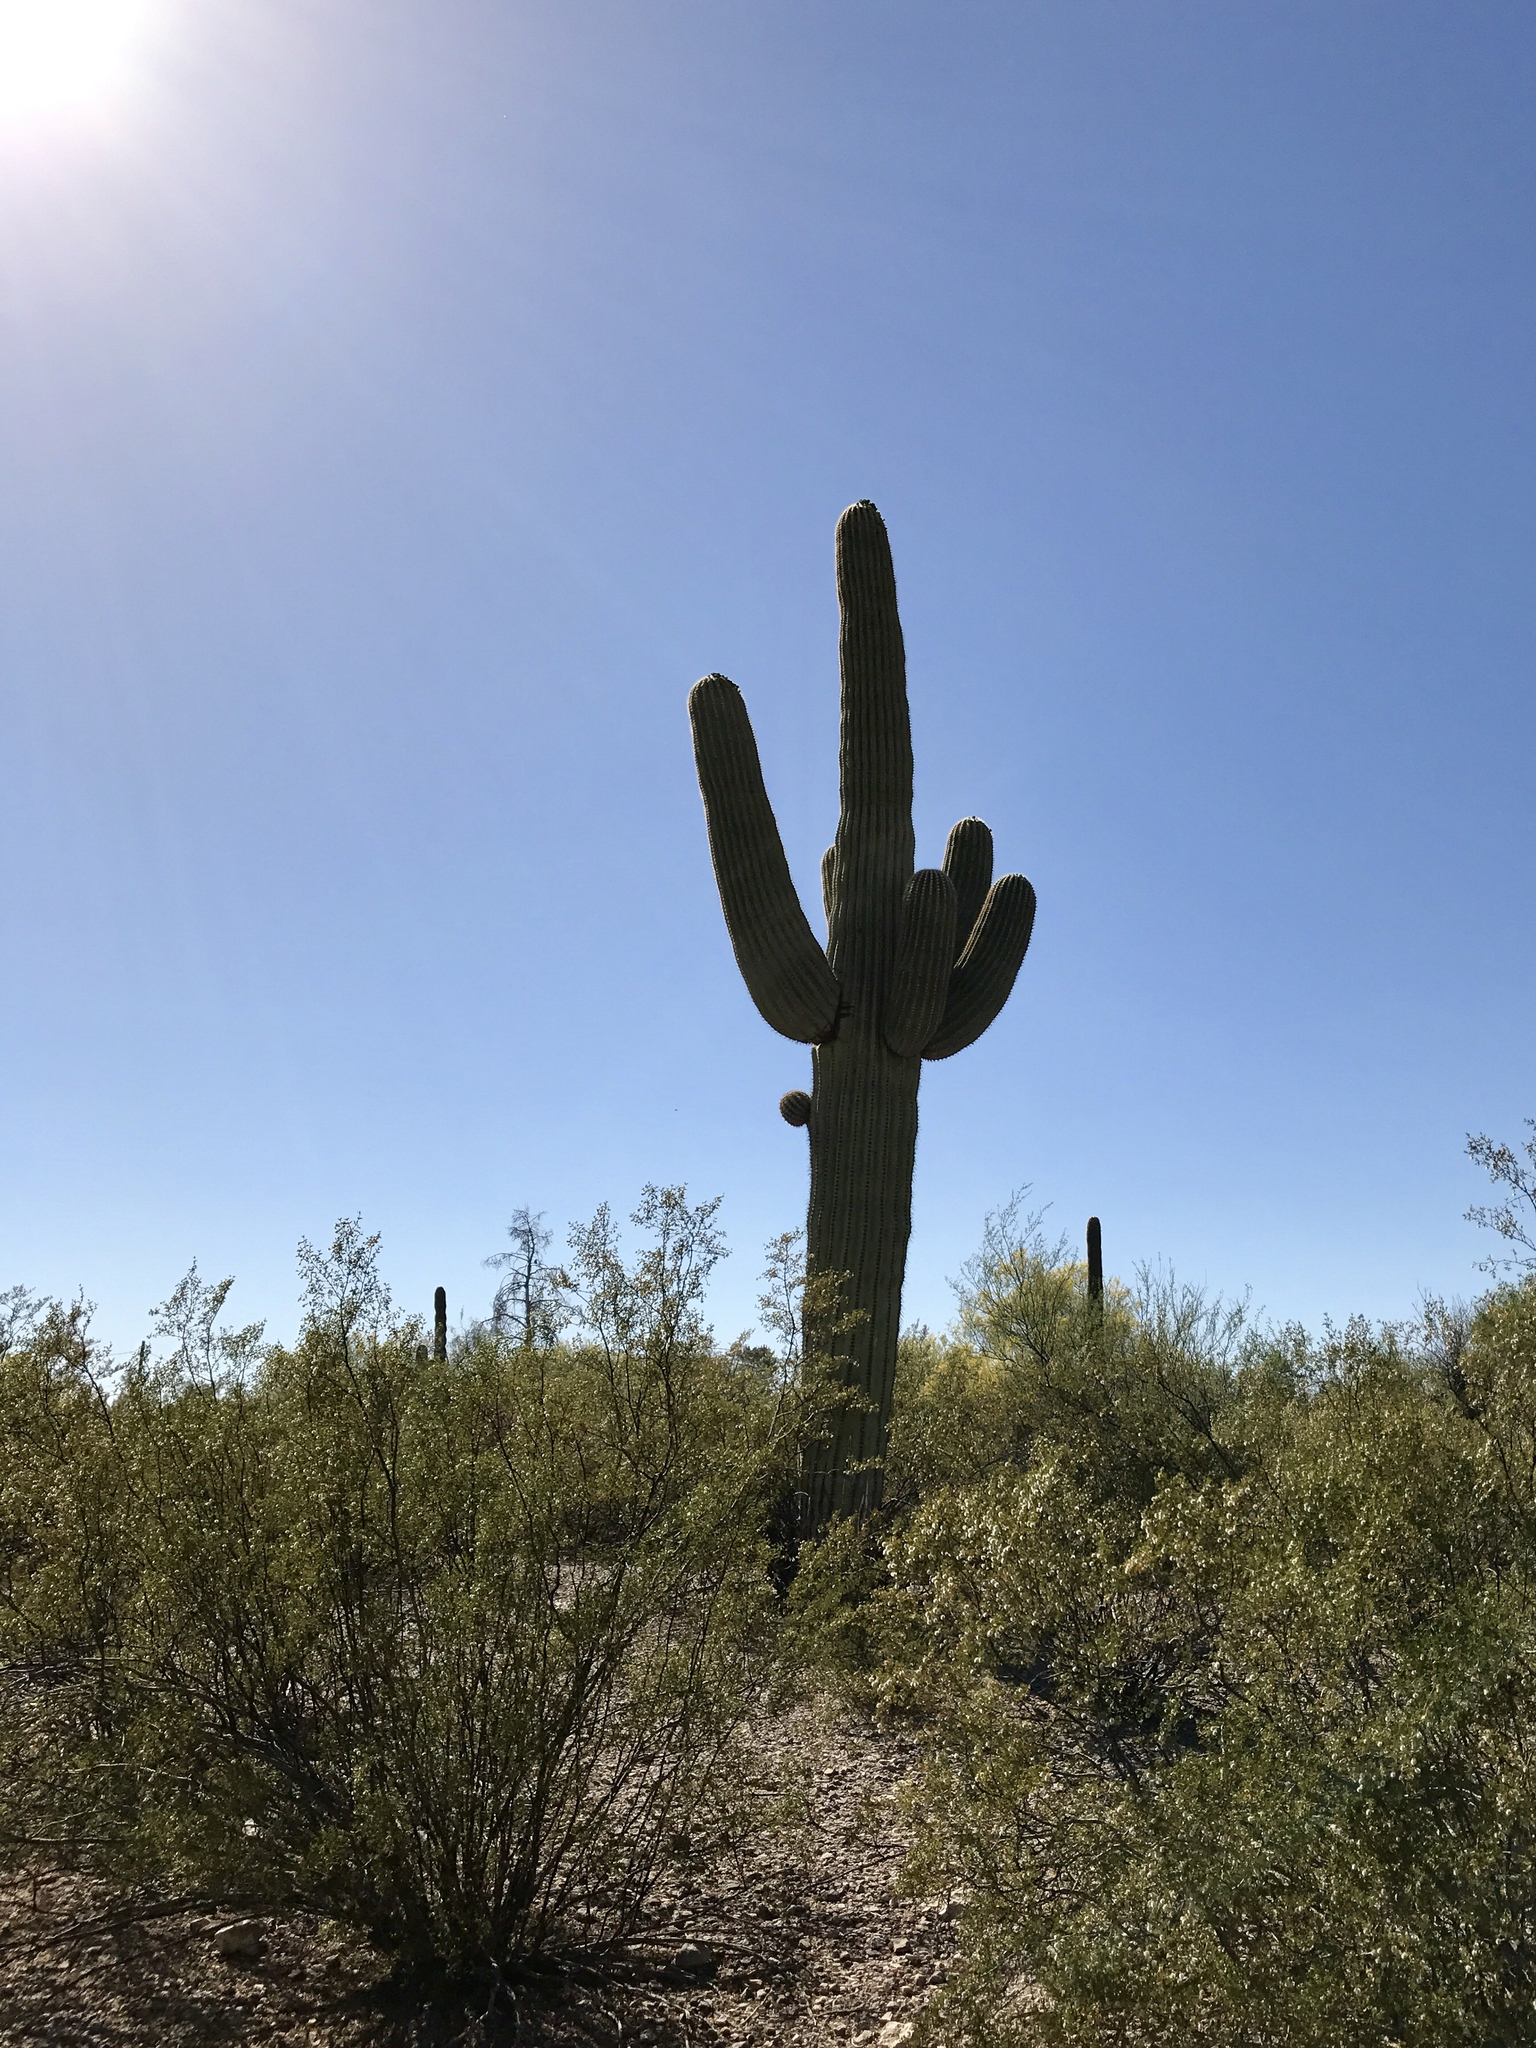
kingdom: Plantae
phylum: Tracheophyta
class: Magnoliopsida
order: Caryophyllales
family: Cactaceae
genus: Carnegiea
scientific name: Carnegiea gigantea
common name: Saguaro
